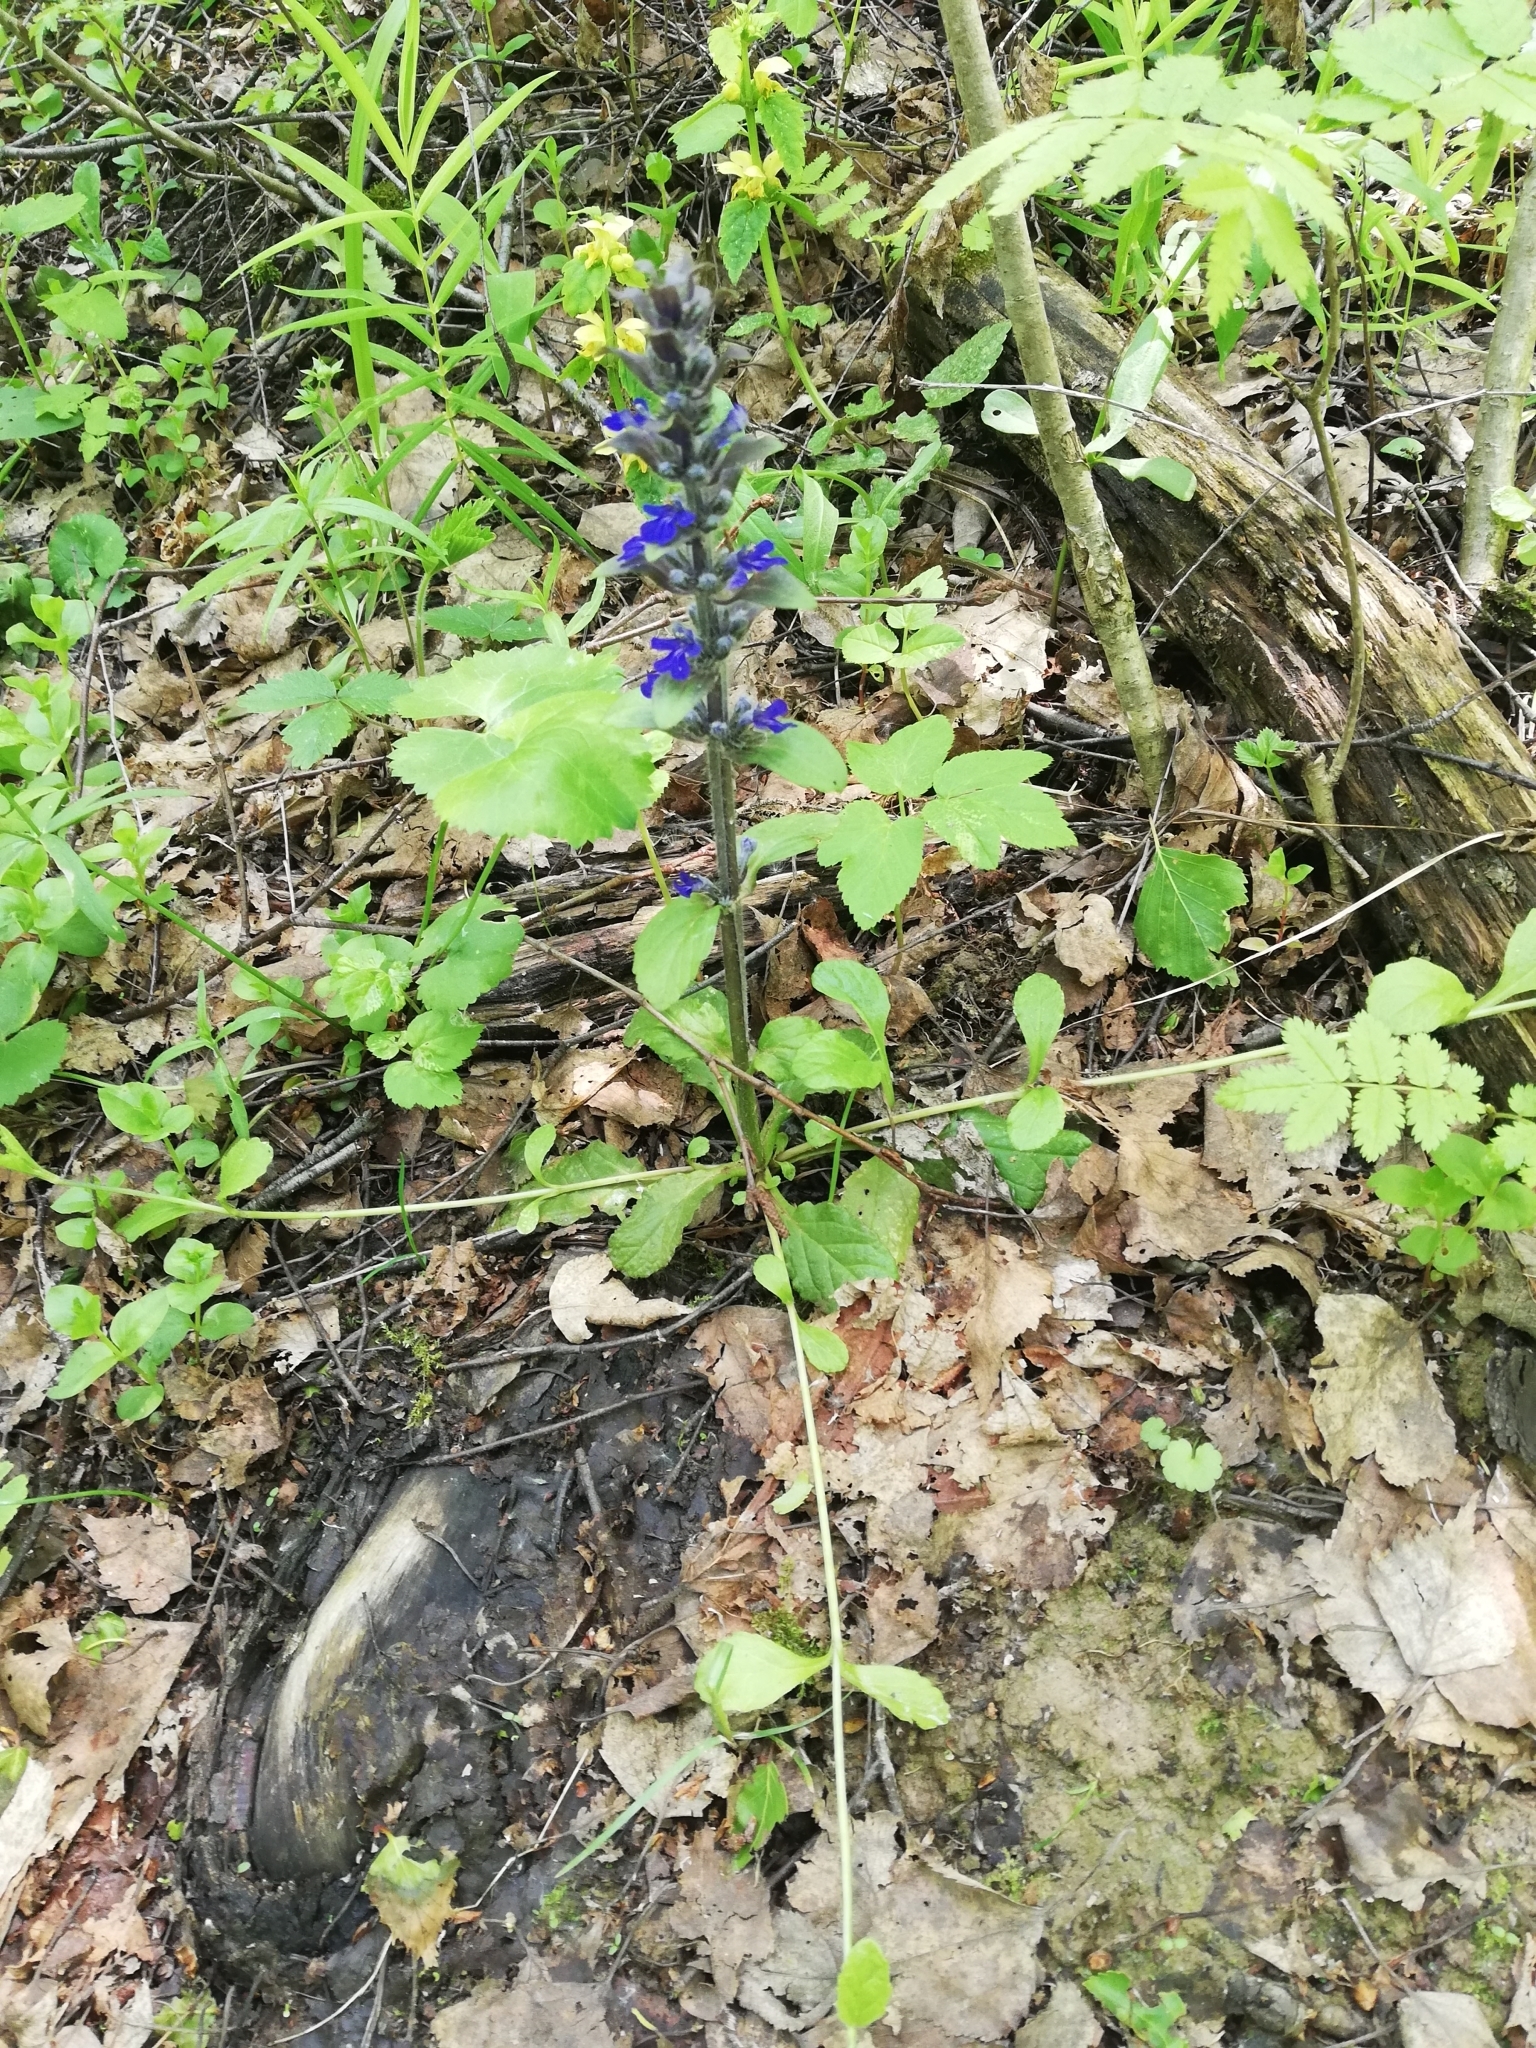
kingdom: Plantae
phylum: Tracheophyta
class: Magnoliopsida
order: Lamiales
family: Lamiaceae
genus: Ajuga
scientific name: Ajuga reptans
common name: Bugle
